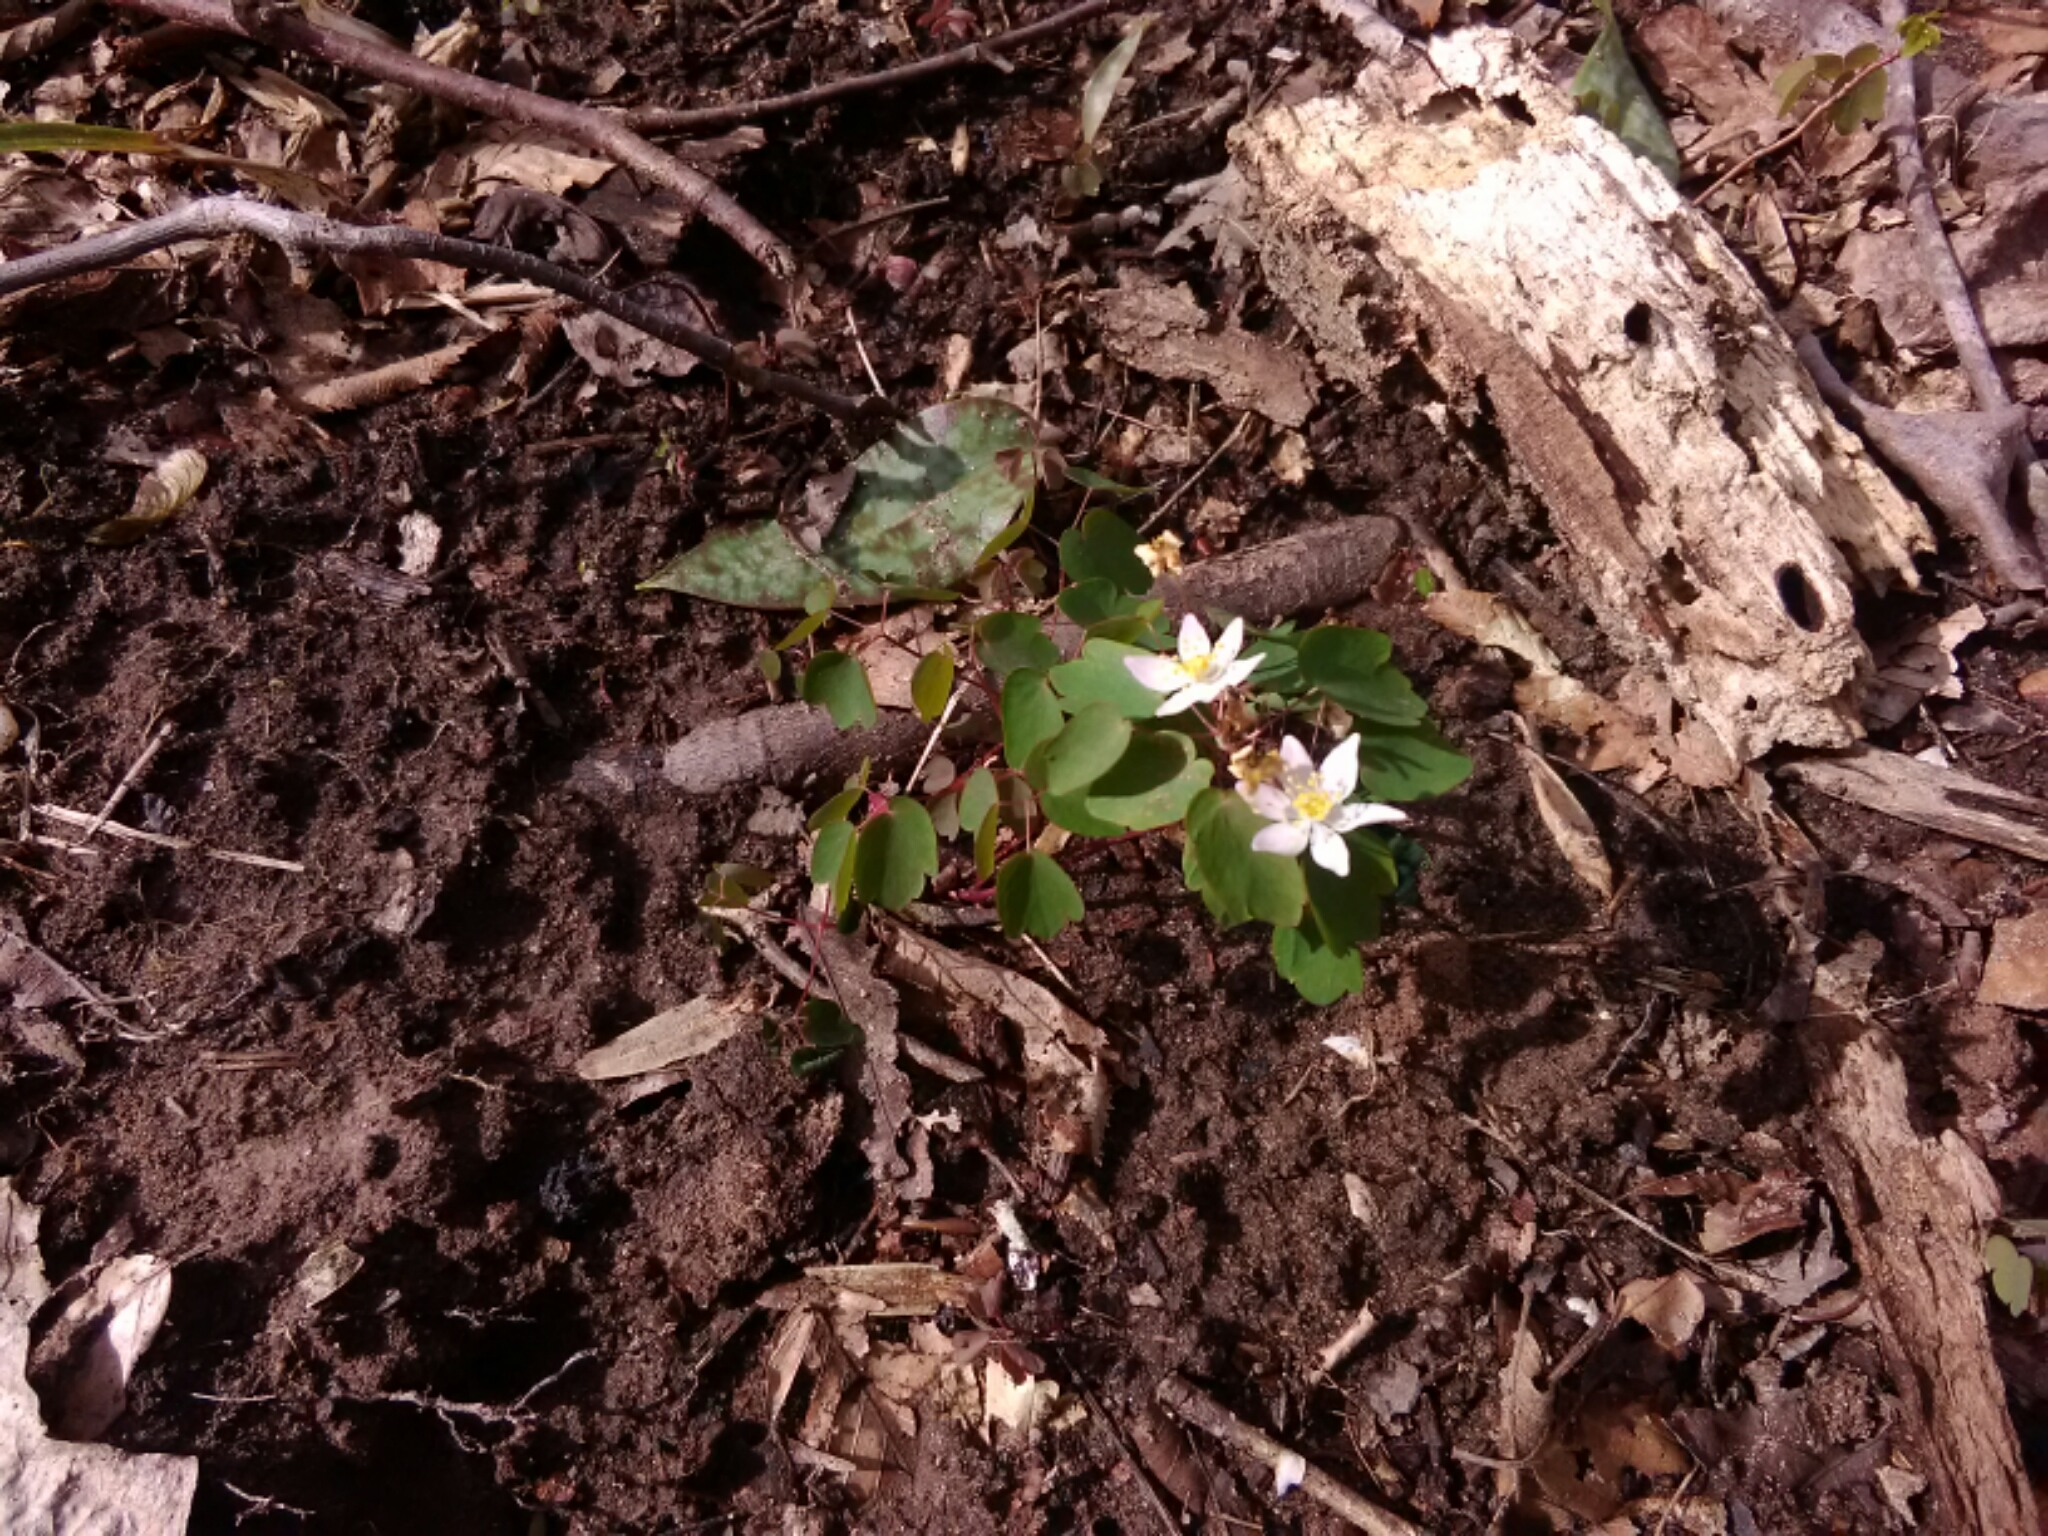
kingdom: Plantae
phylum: Tracheophyta
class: Magnoliopsida
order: Ranunculales
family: Ranunculaceae
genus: Thalictrum
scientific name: Thalictrum thalictroides
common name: Rue-anemone
